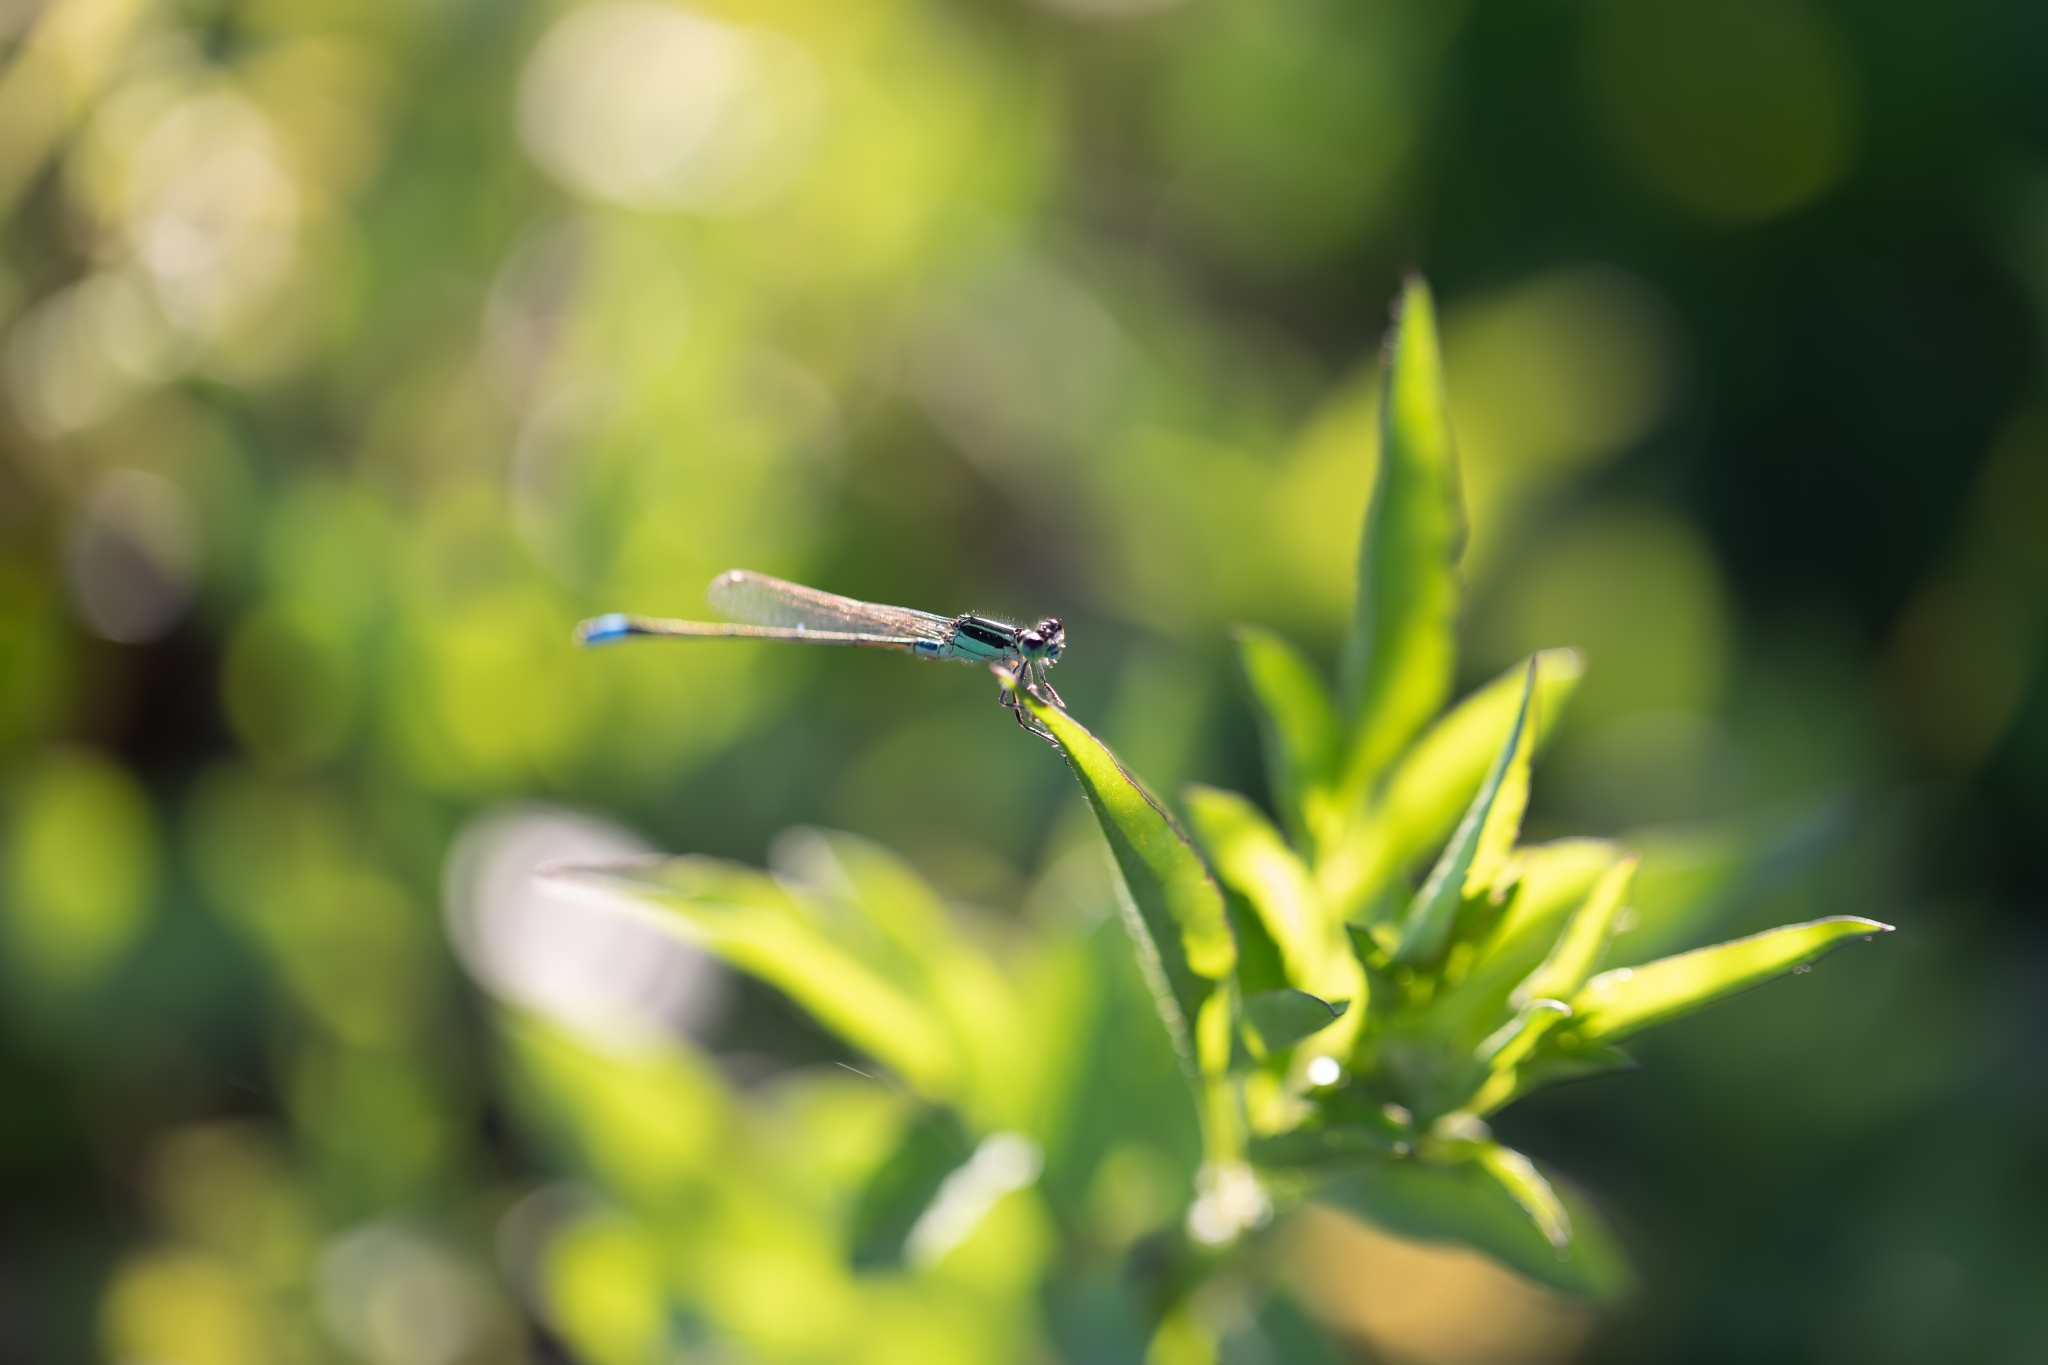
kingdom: Animalia
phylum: Arthropoda
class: Insecta
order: Odonata
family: Coenagrionidae
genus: Ischnura
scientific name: Ischnura ramburii
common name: Rambur's forktail
